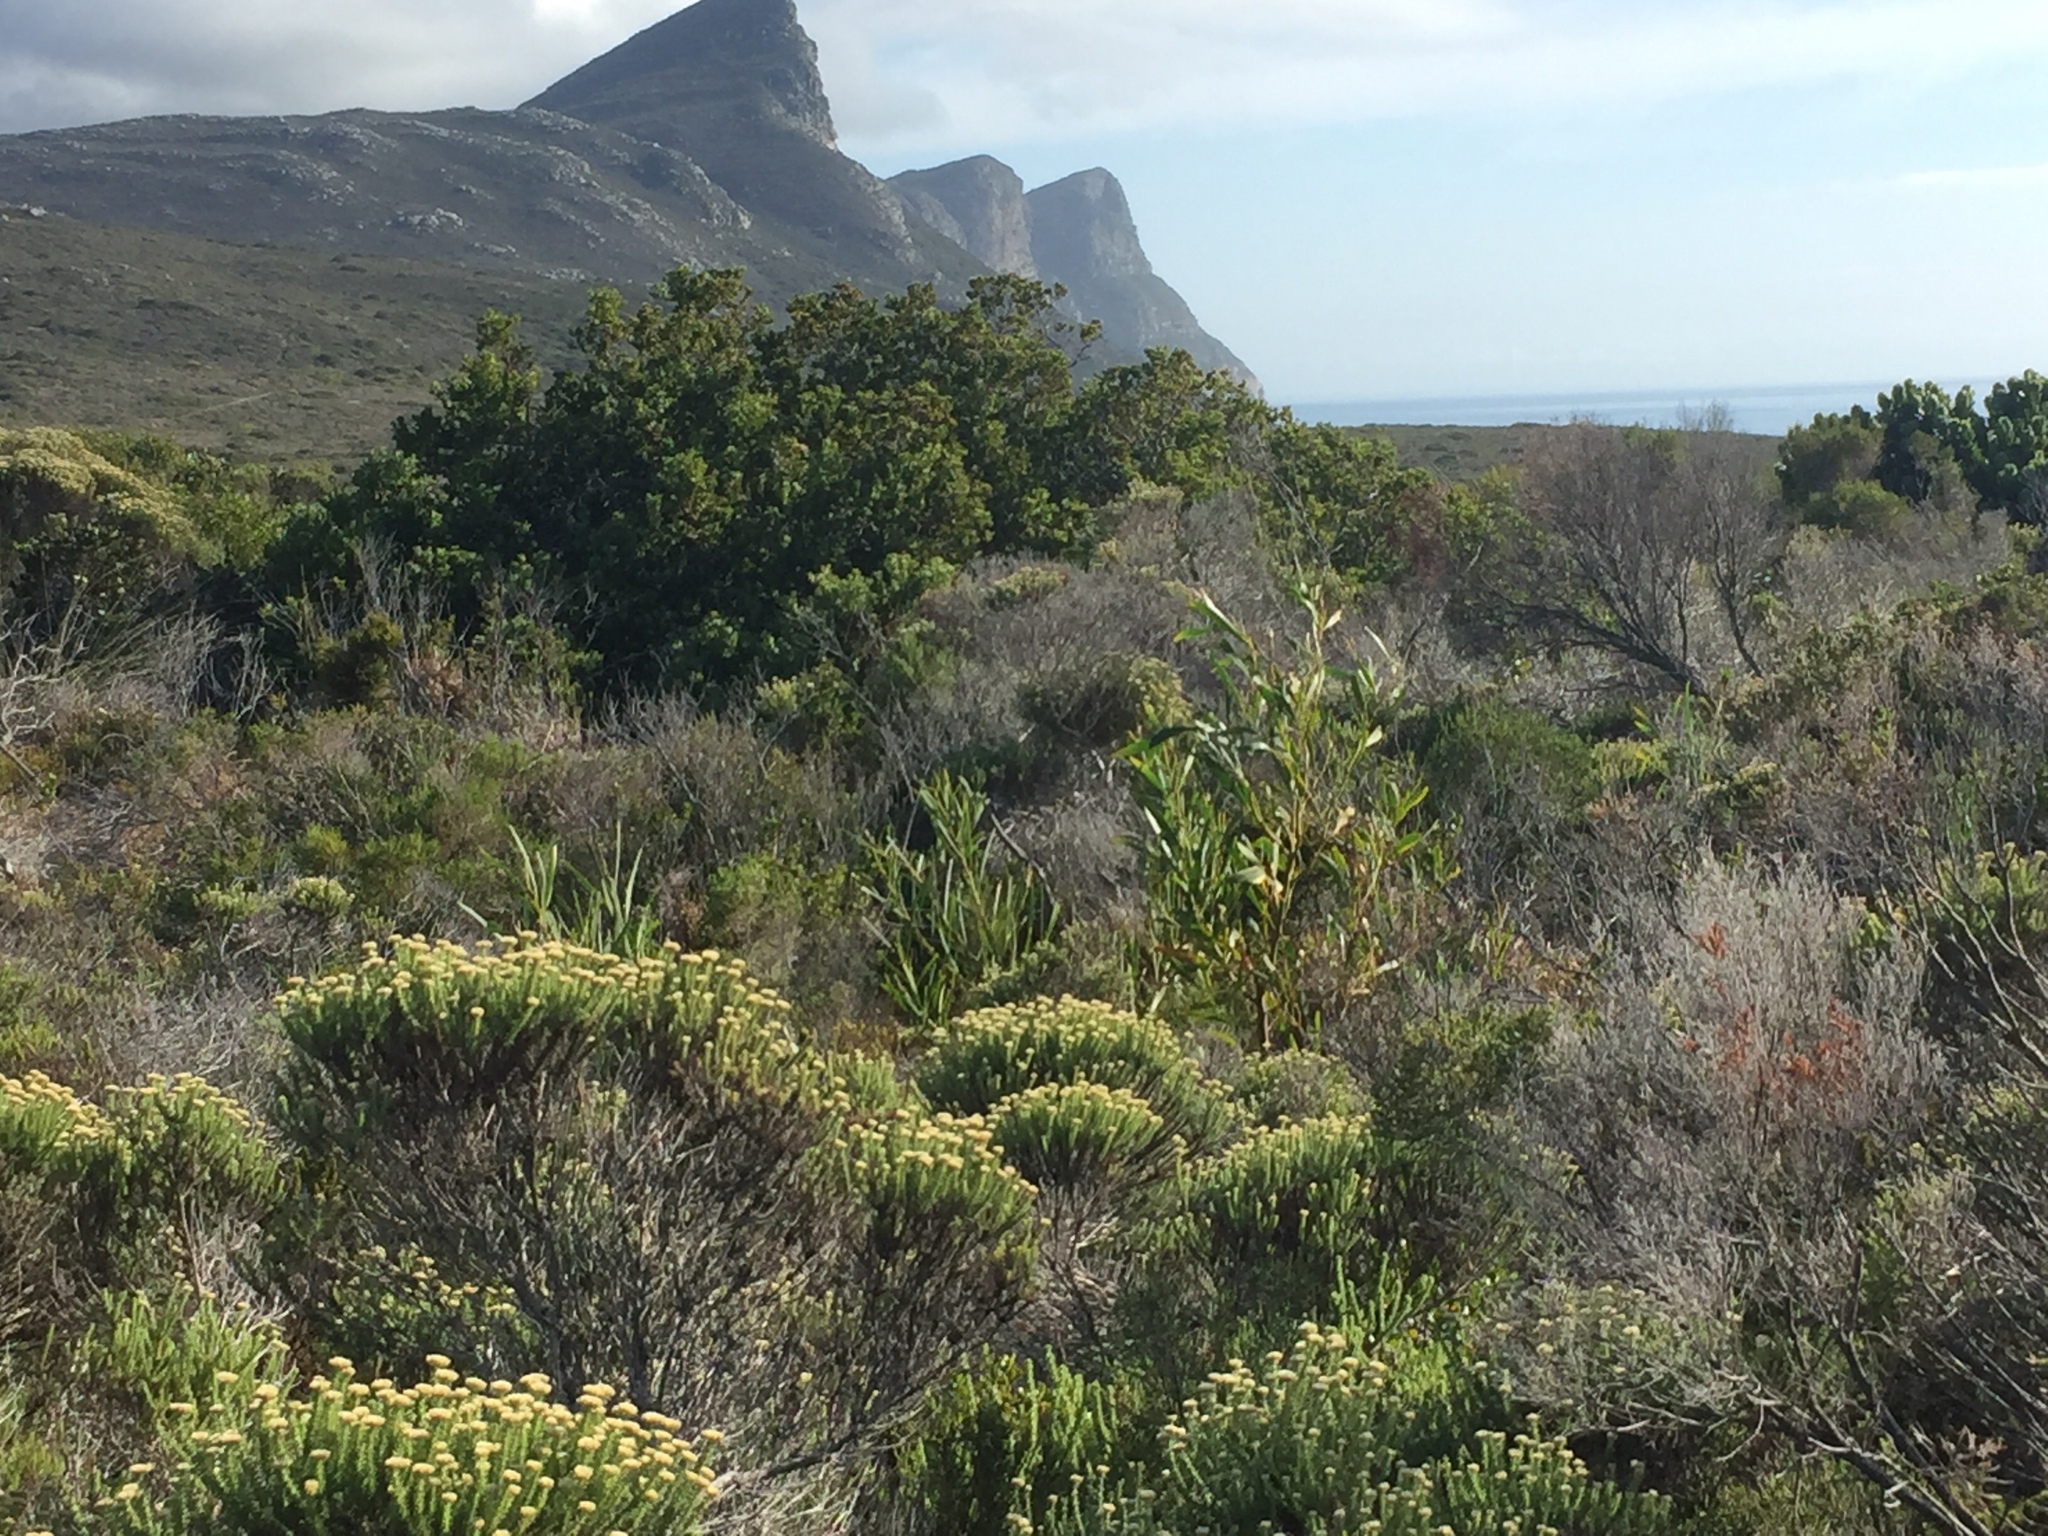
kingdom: Plantae
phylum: Tracheophyta
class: Magnoliopsida
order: Fabales
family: Fabaceae
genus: Acacia
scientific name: Acacia saligna
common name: Orange wattle
